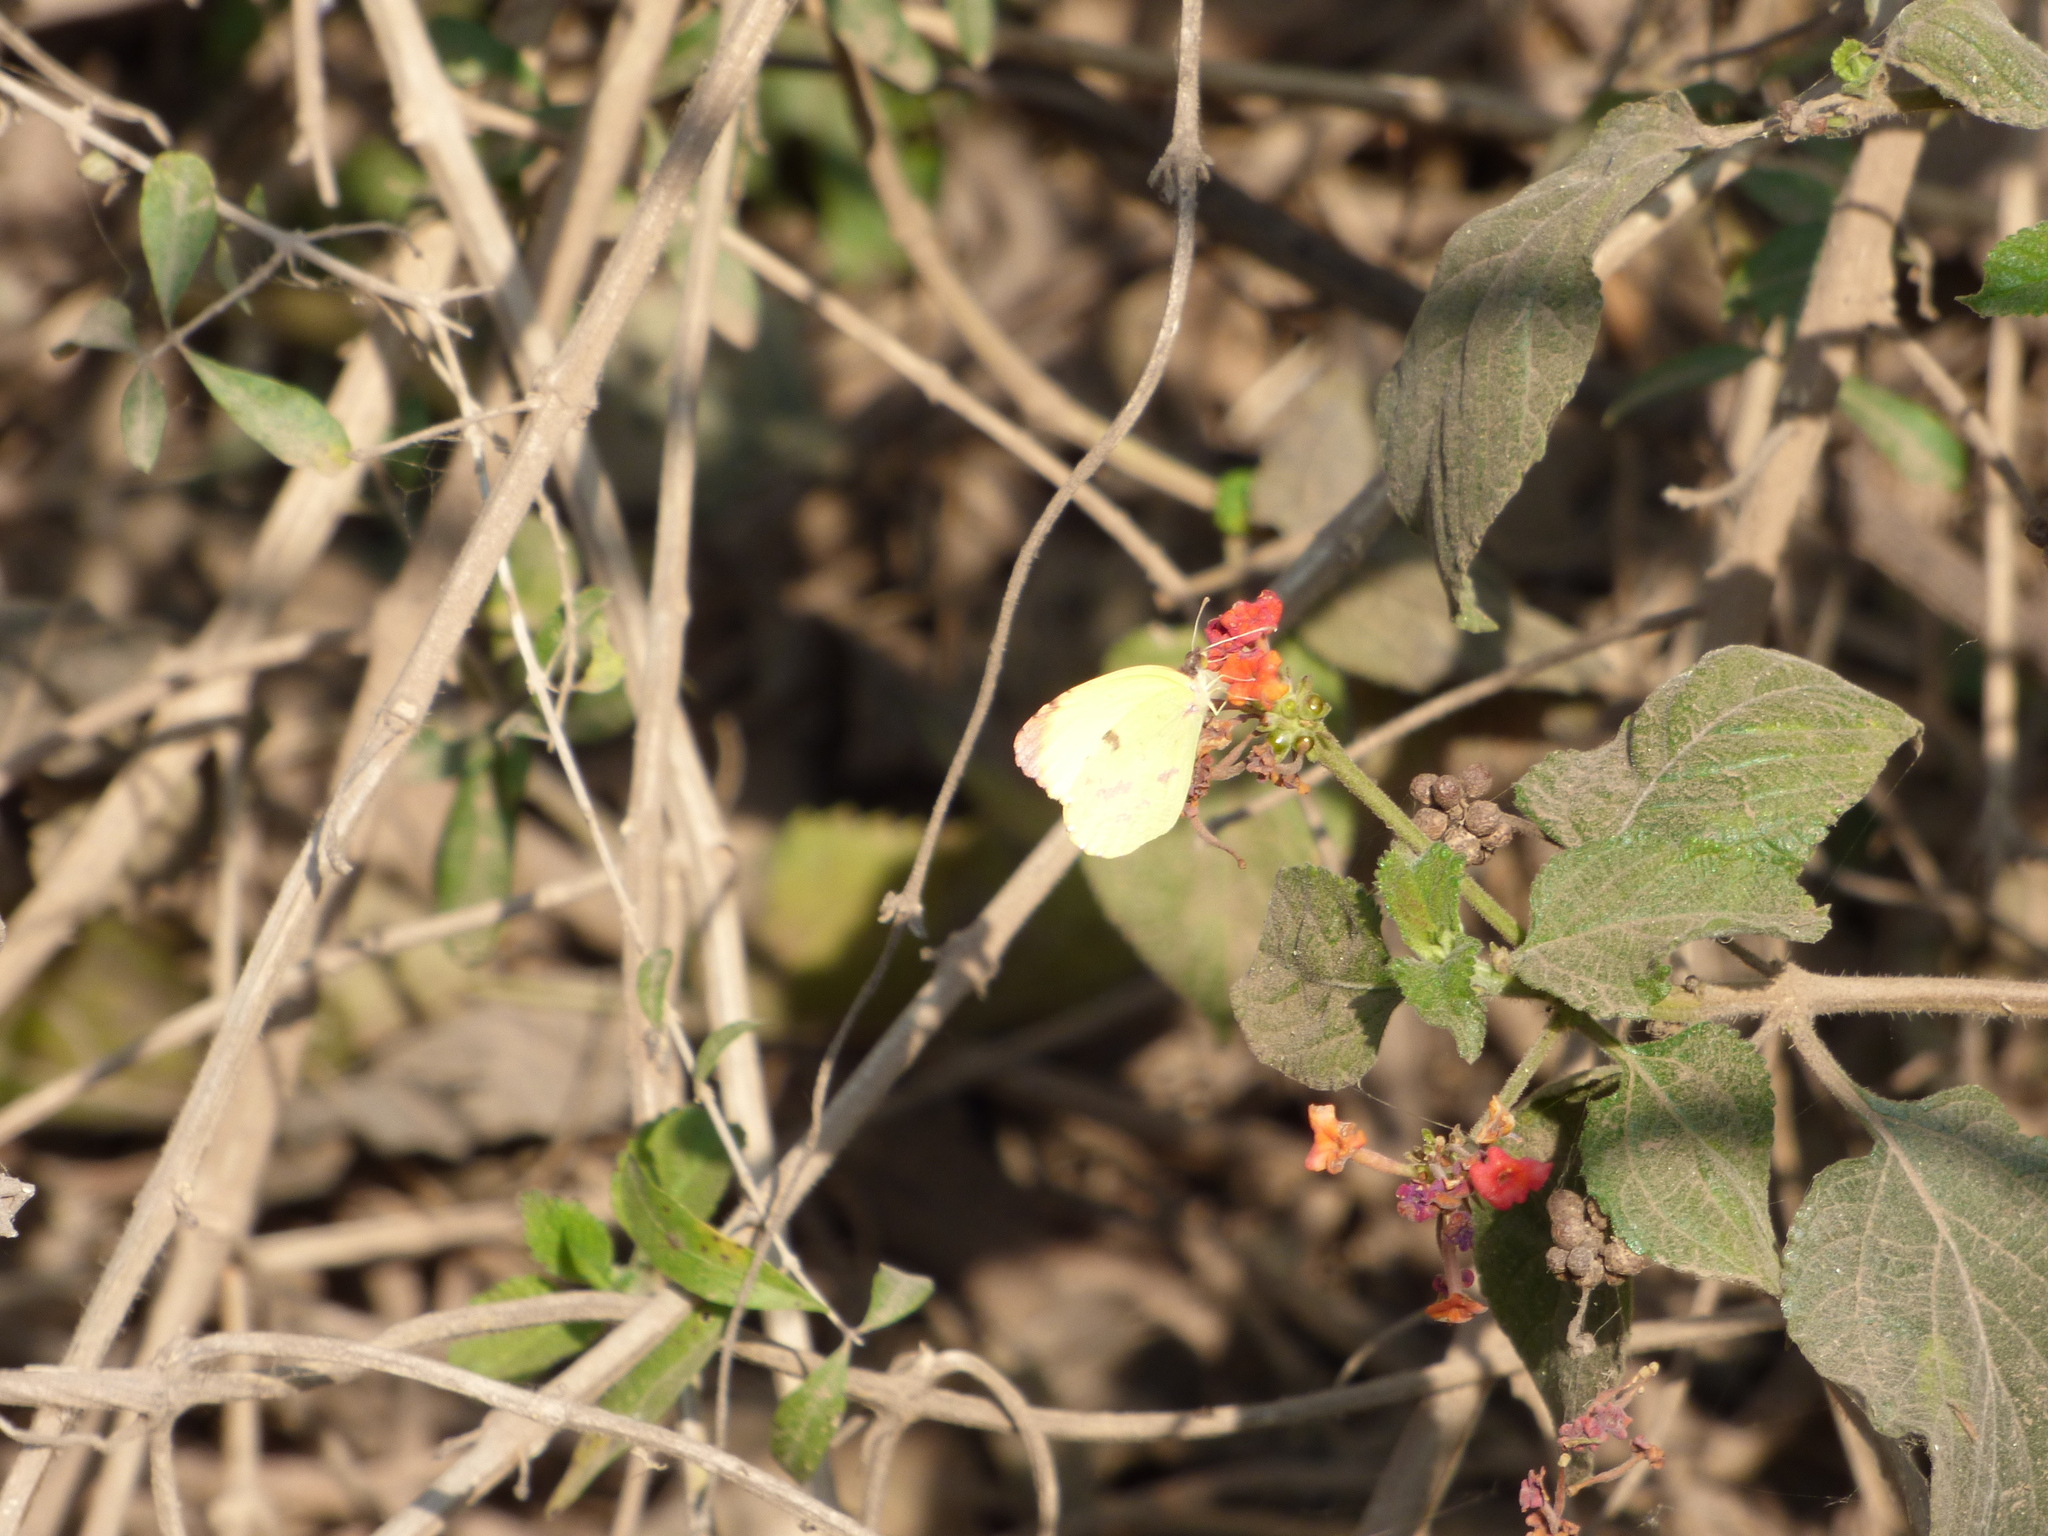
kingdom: Animalia
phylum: Arthropoda
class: Insecta
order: Lepidoptera
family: Pieridae
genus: Teriocolias
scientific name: Teriocolias
